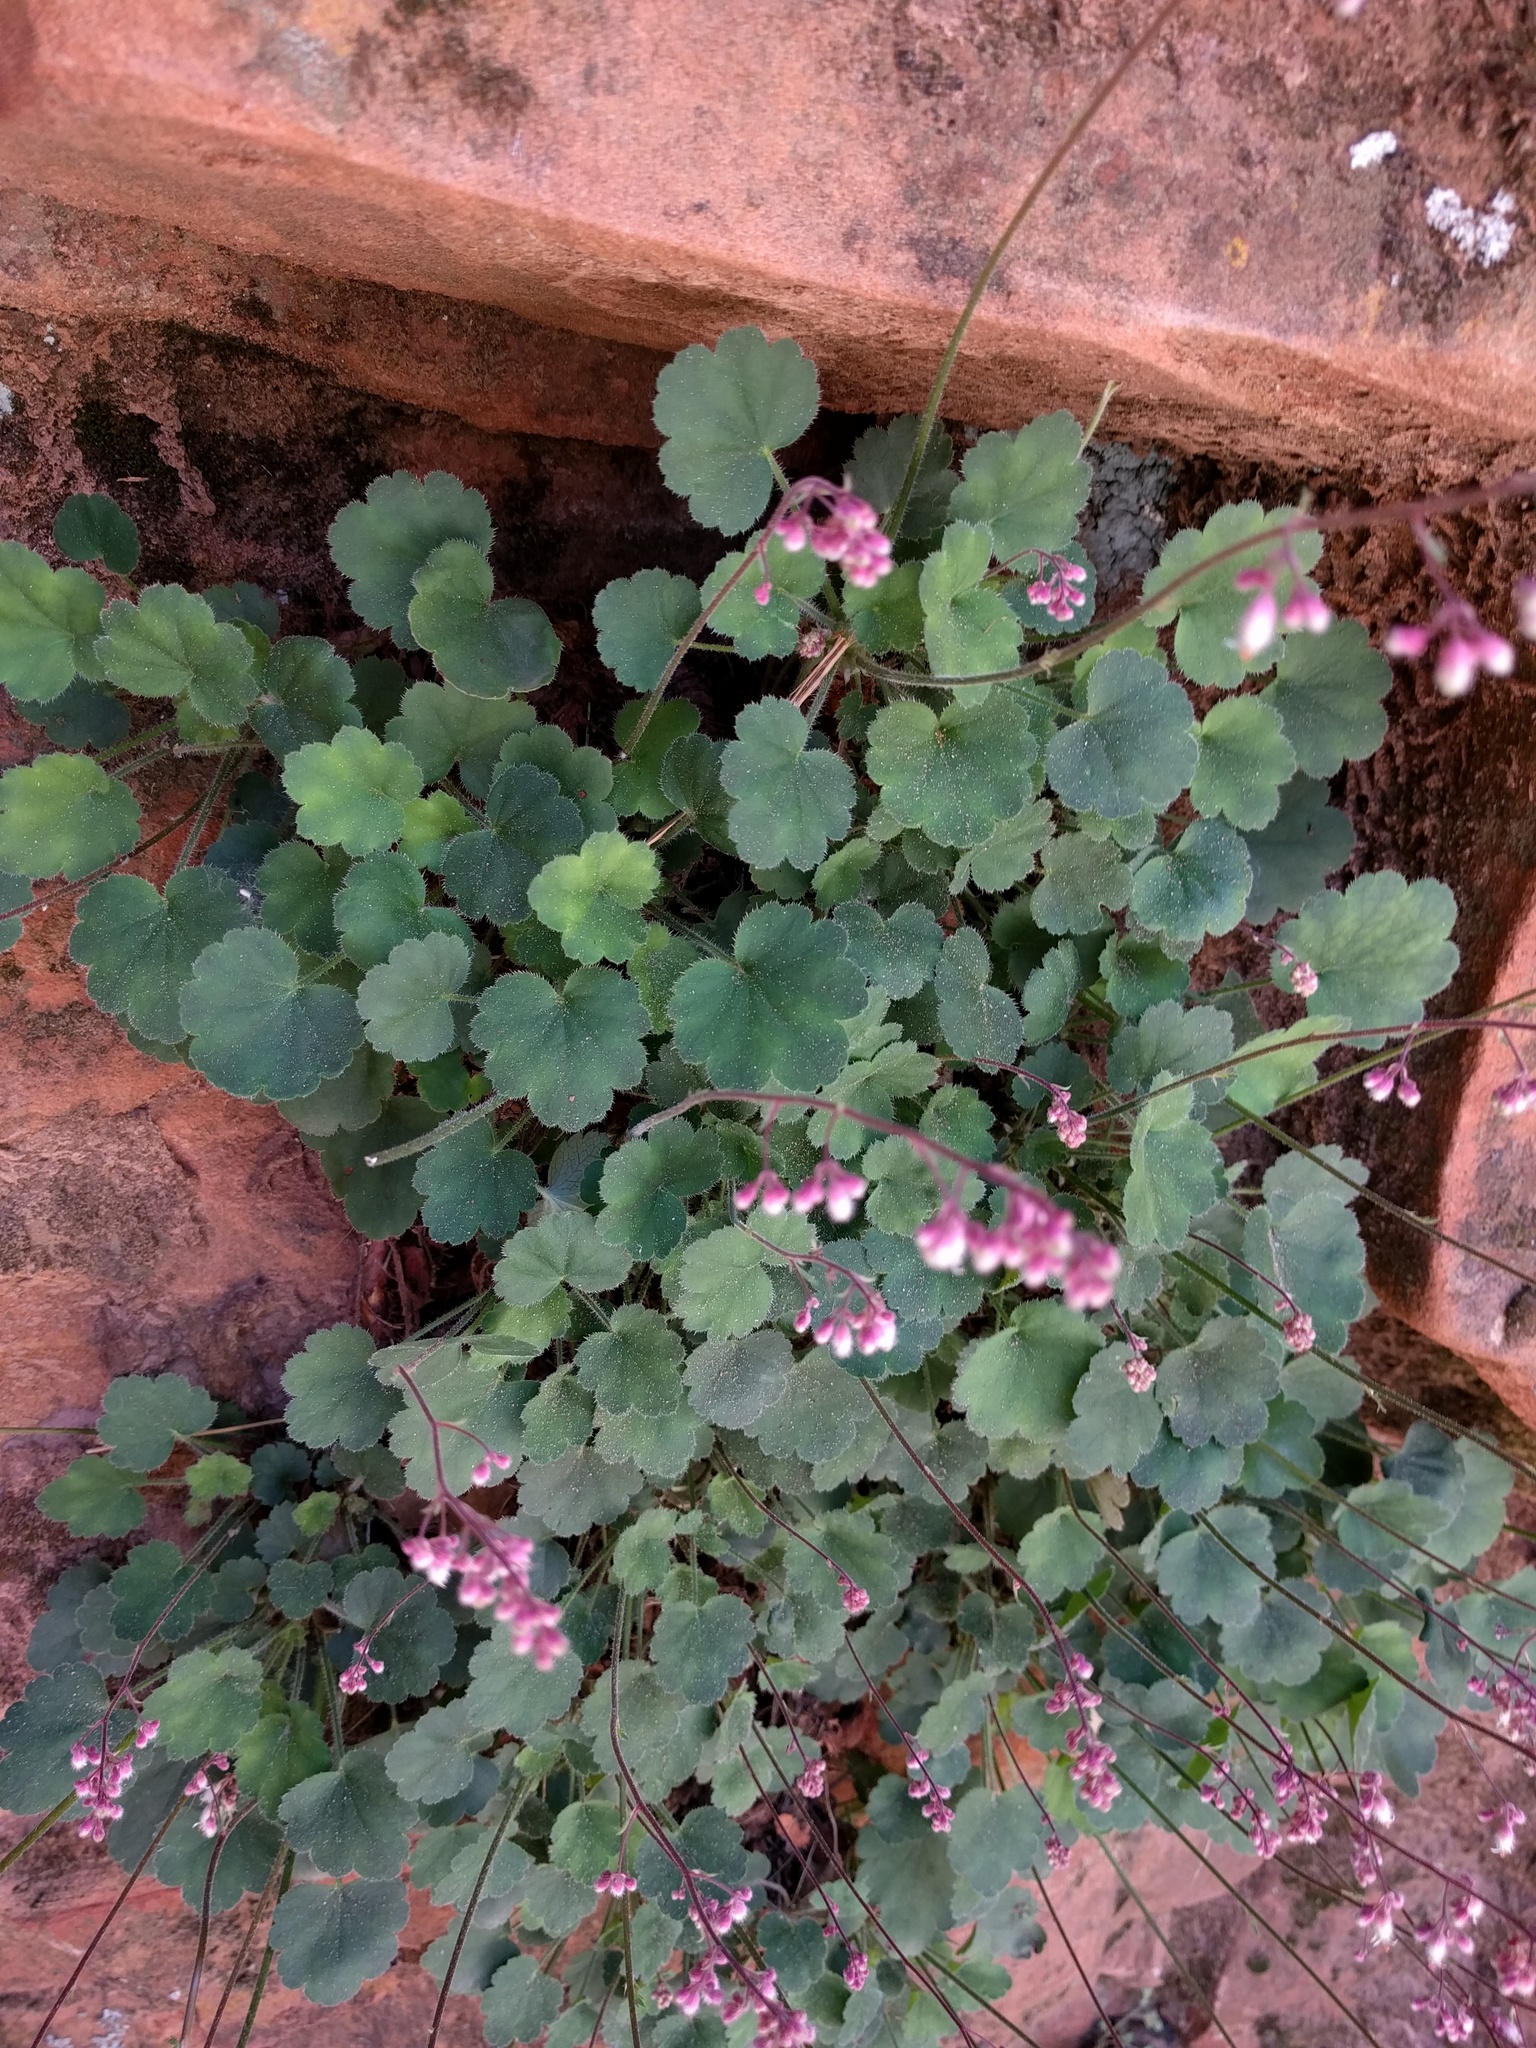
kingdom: Plantae
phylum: Tracheophyta
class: Magnoliopsida
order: Saxifragales
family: Saxifragaceae
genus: Heuchera
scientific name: Heuchera rubescens
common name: Jack-o'the-rocks
